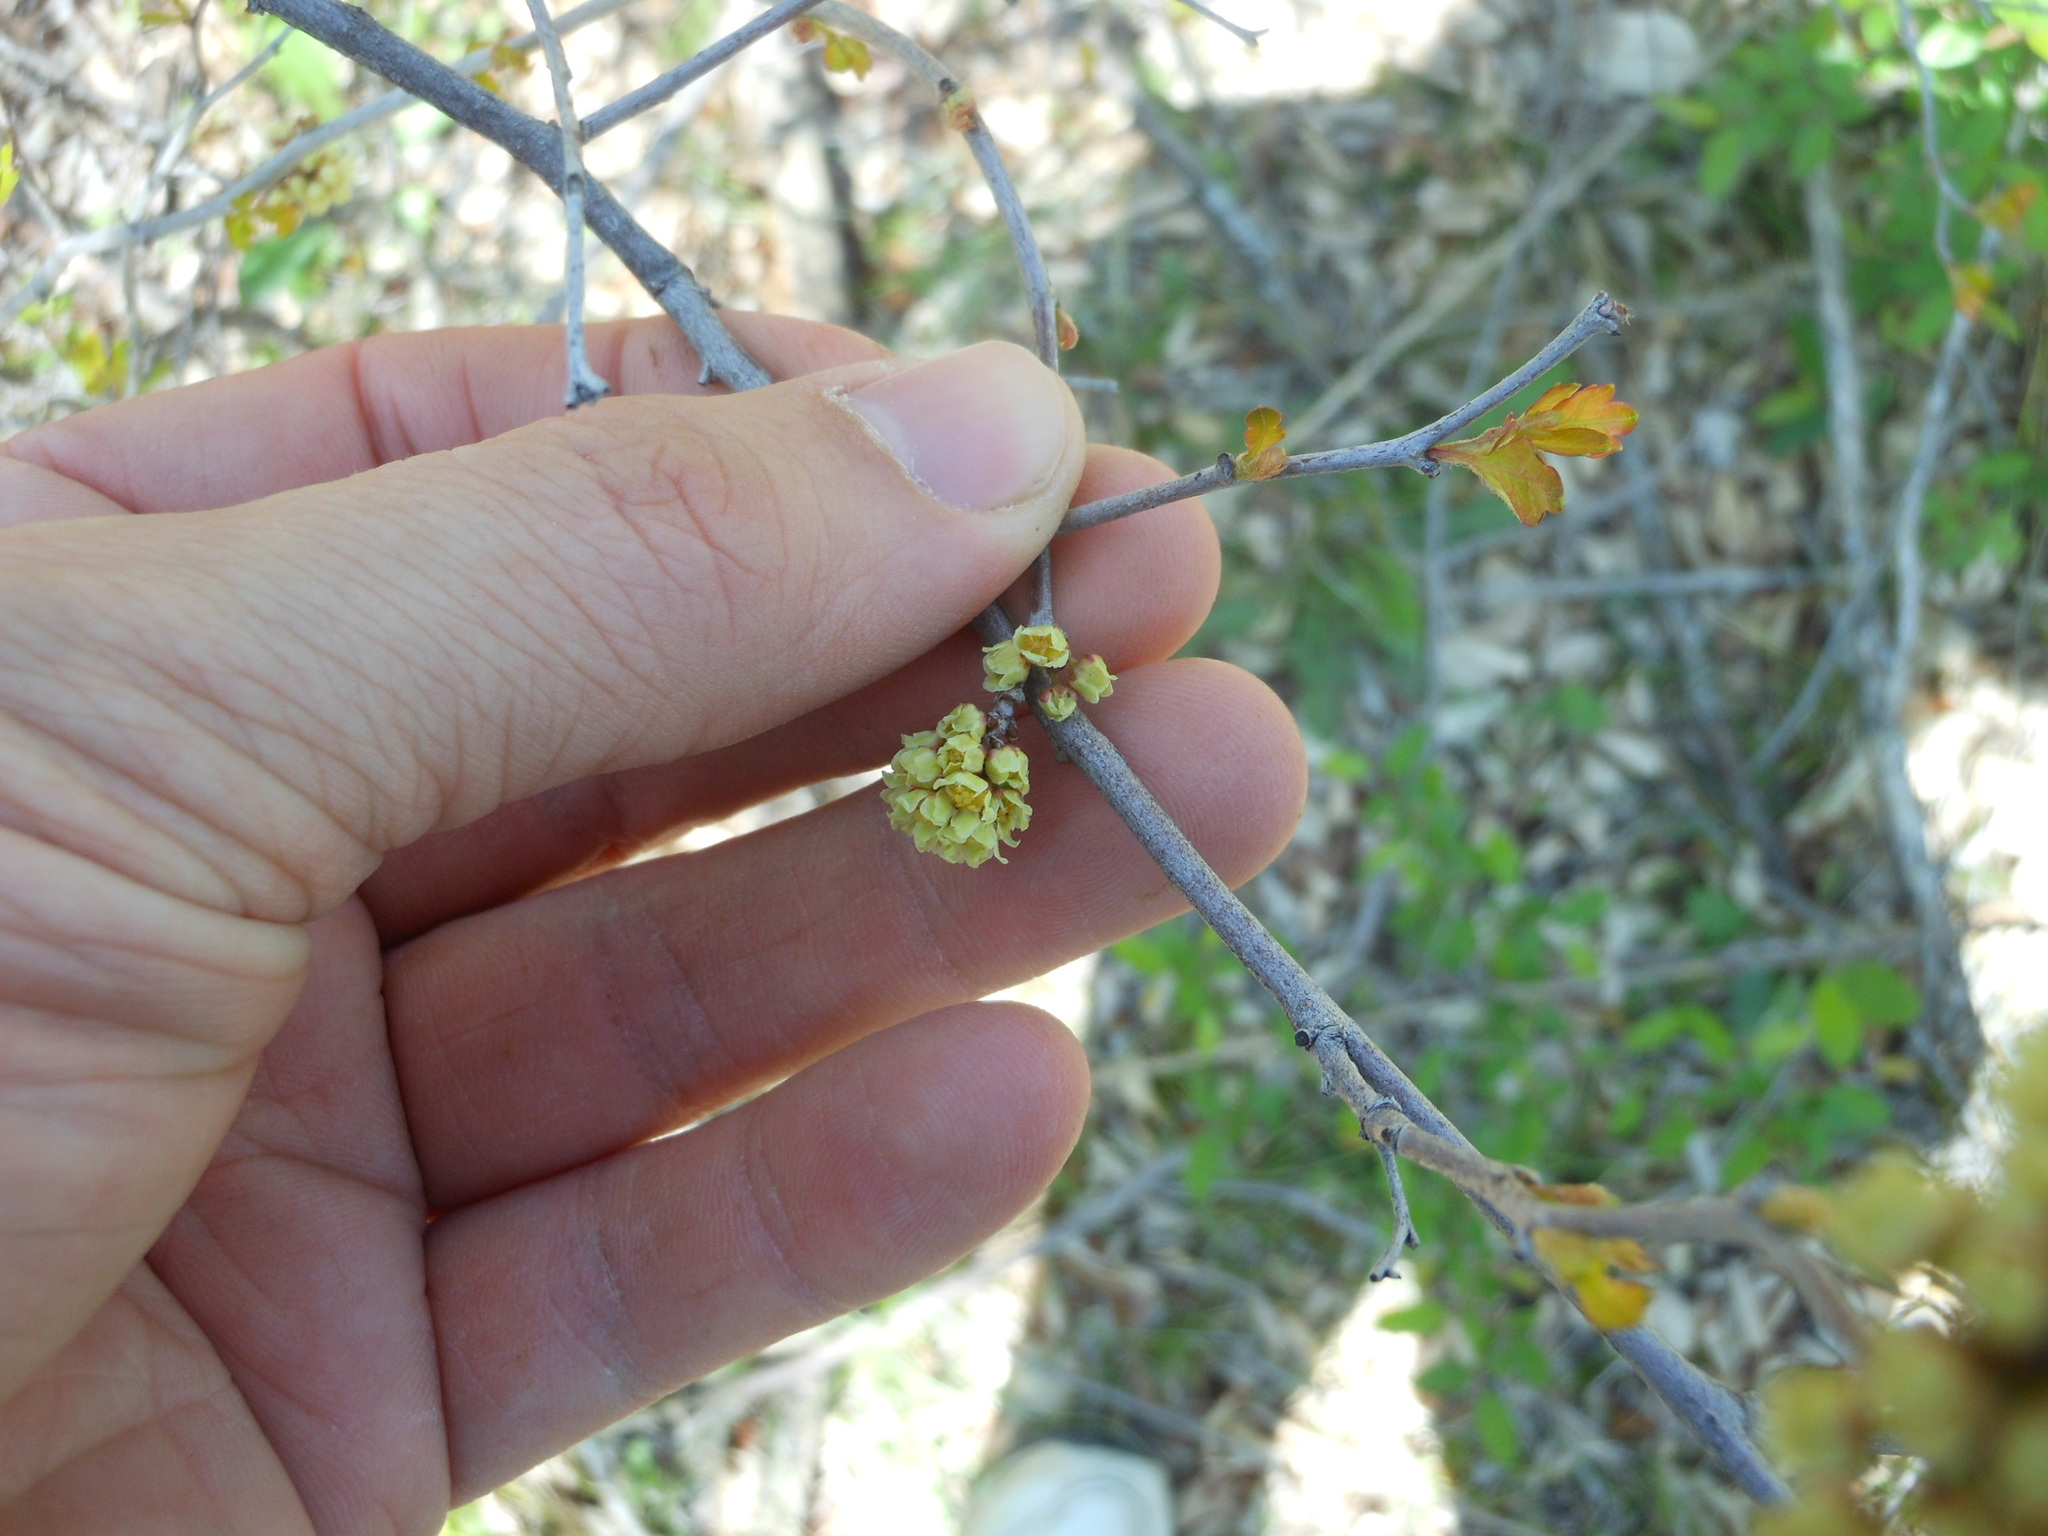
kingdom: Plantae
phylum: Tracheophyta
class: Magnoliopsida
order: Sapindales
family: Anacardiaceae
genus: Rhus
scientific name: Rhus aromatica
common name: Aromatic sumac
